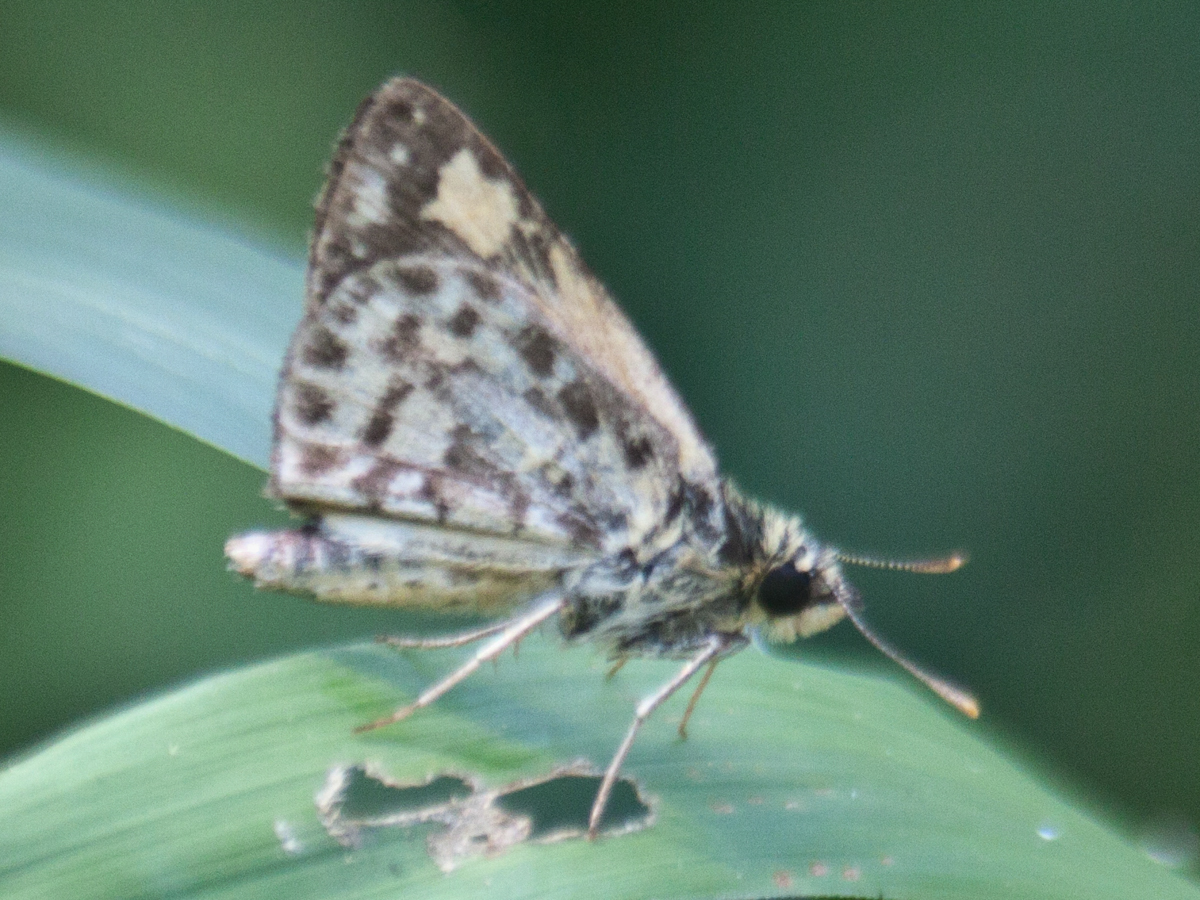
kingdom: Animalia
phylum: Arthropoda
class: Insecta
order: Lepidoptera
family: Hesperiidae
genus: Ampittia
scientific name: Ampittia dioscorides
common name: Common bush hopper
